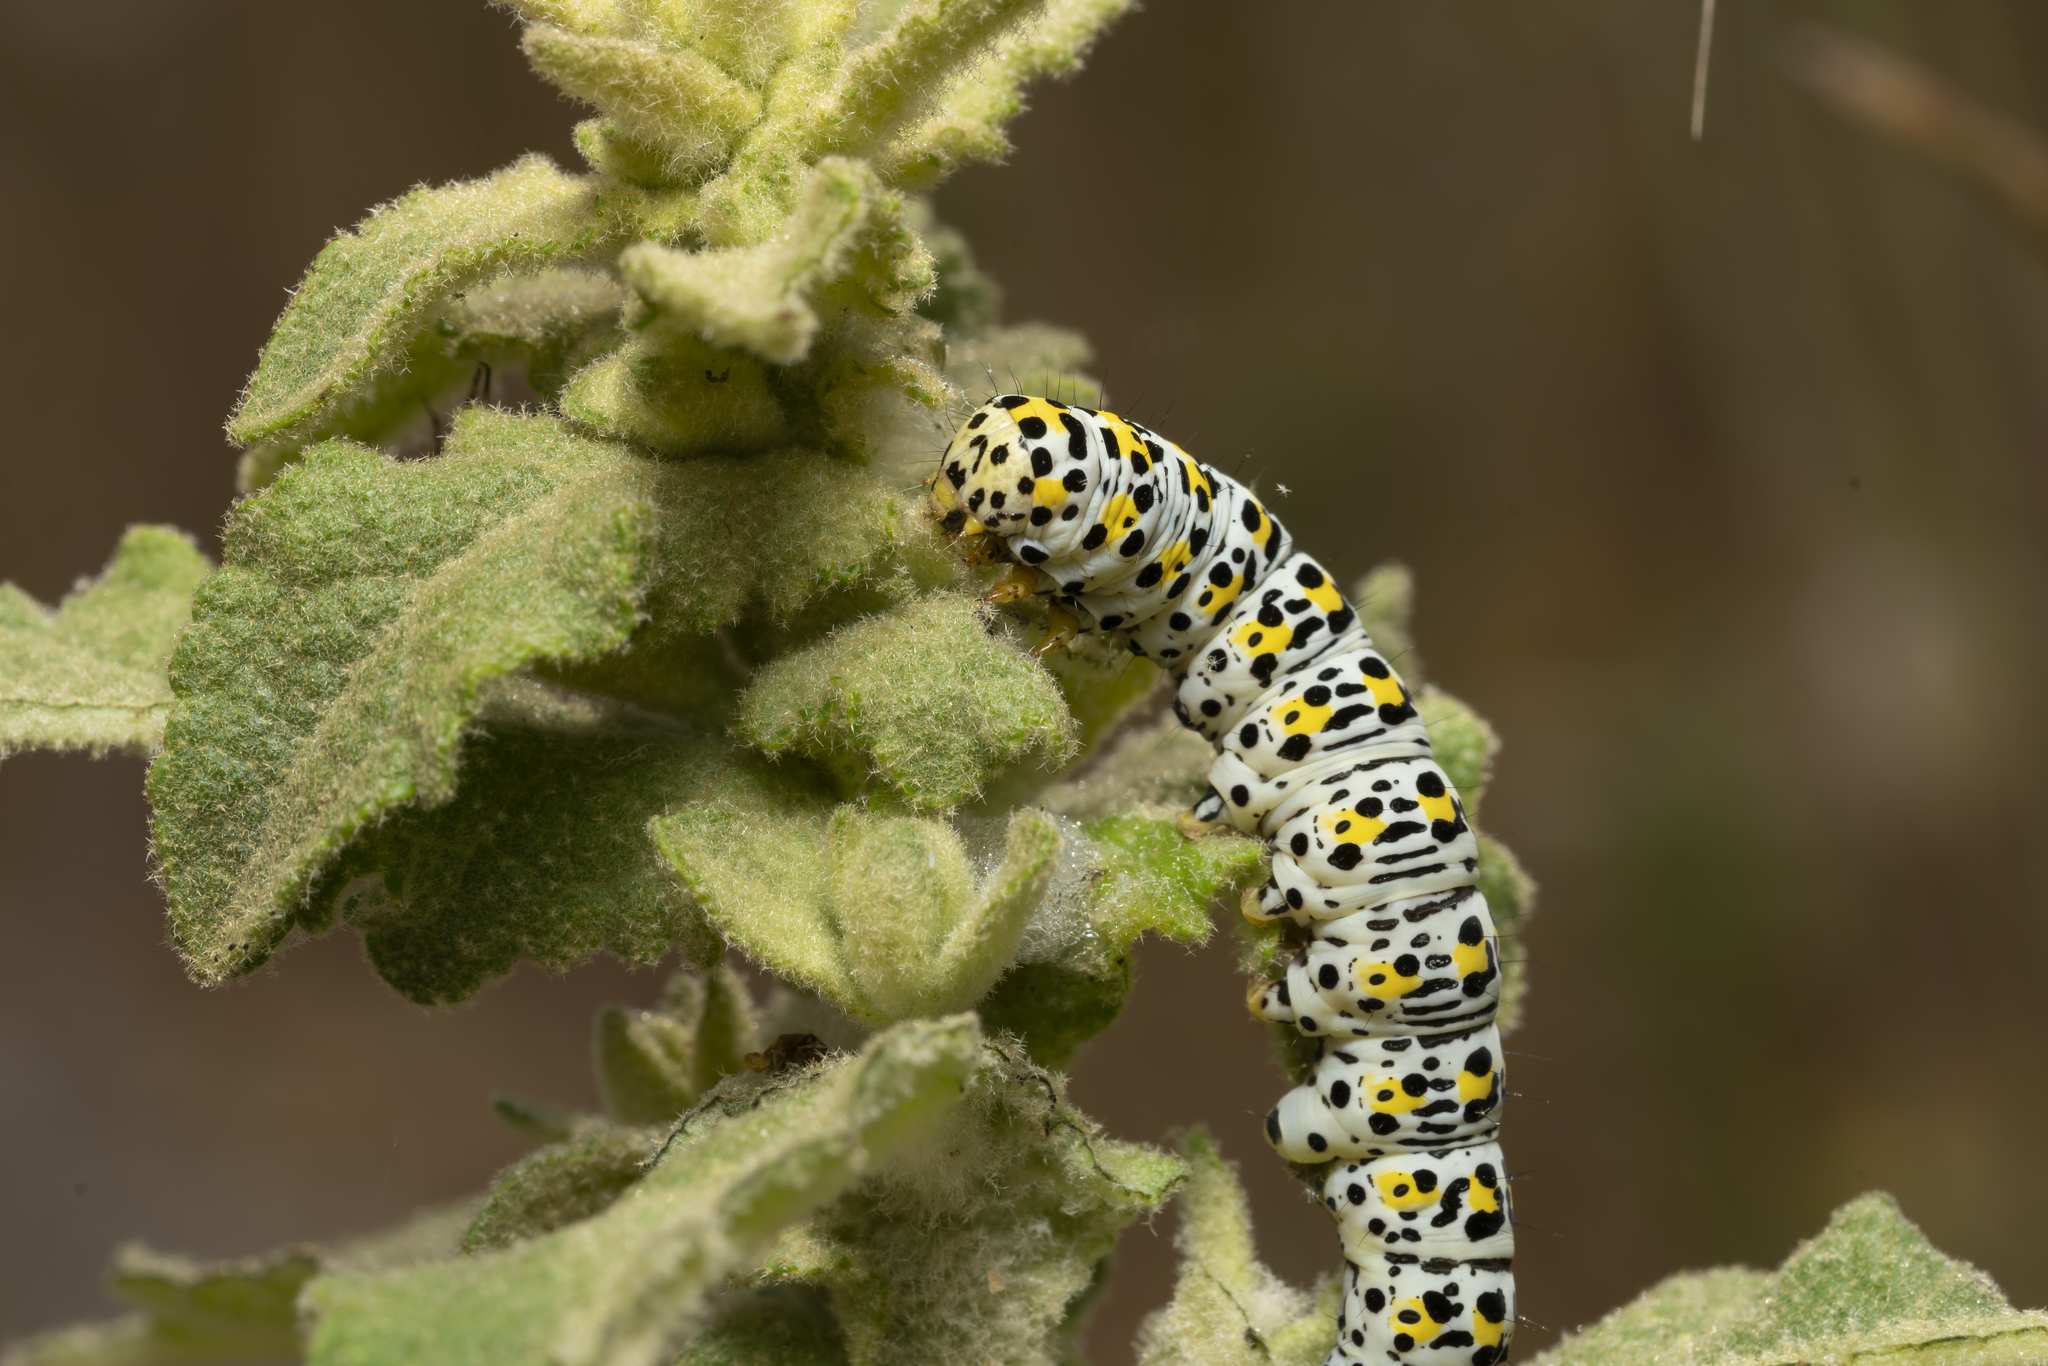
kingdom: Animalia
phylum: Arthropoda
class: Insecta
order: Lepidoptera
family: Noctuidae
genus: Cucullia
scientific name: Cucullia verbasci
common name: Mullein
